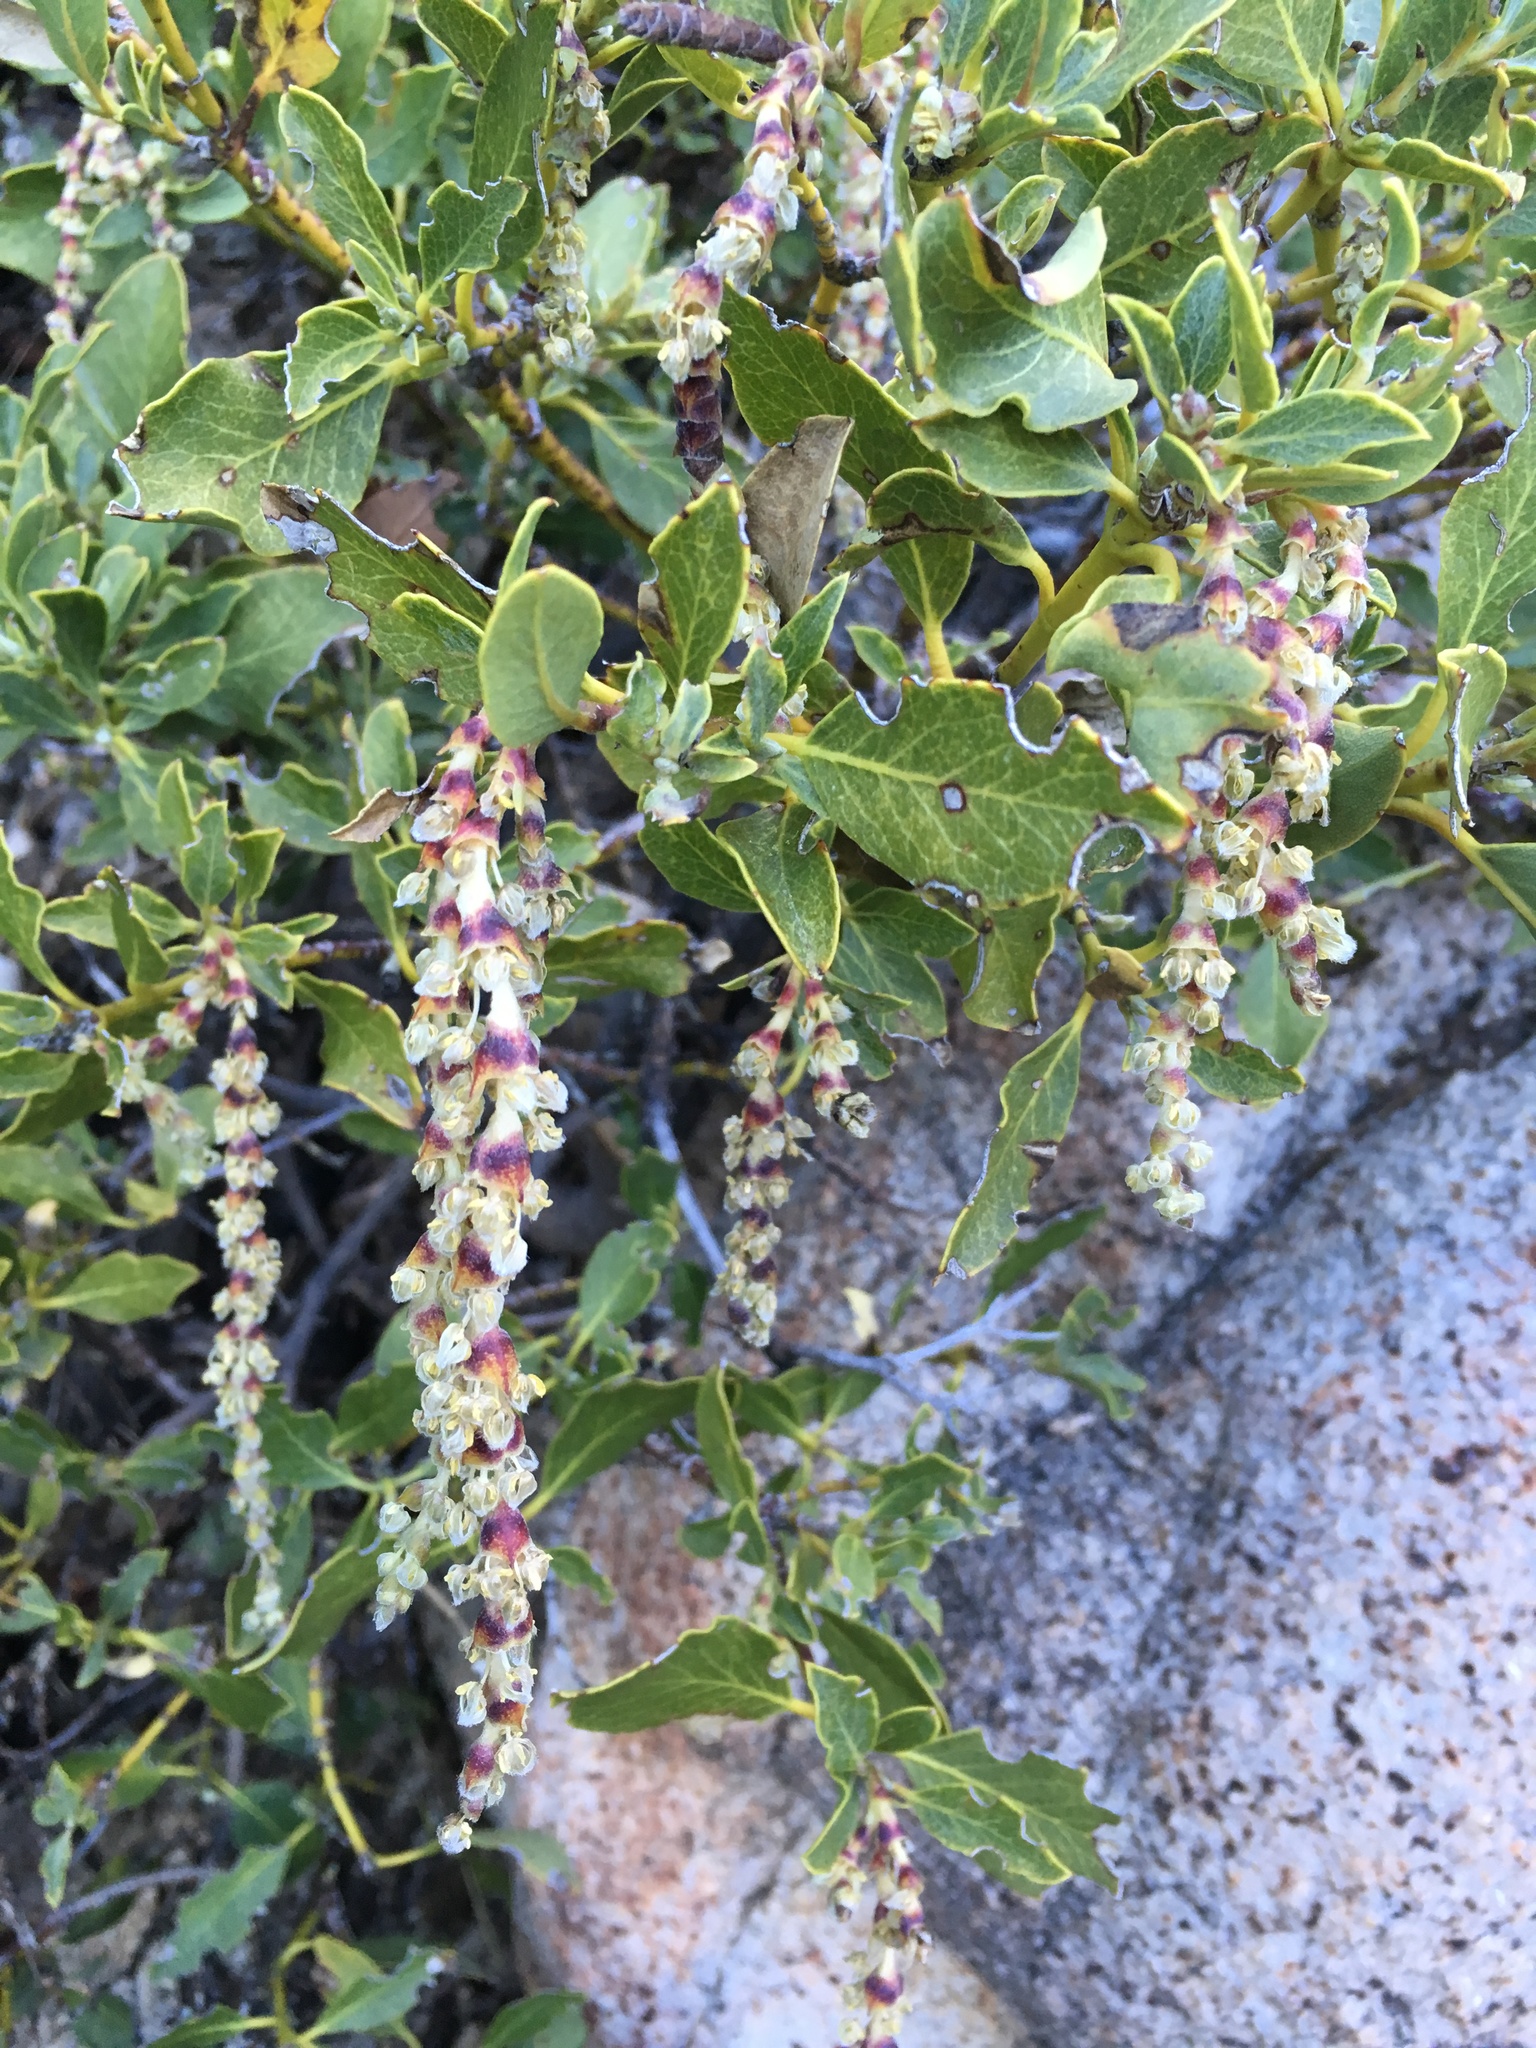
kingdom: Plantae
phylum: Tracheophyta
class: Magnoliopsida
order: Garryales
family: Garryaceae
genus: Garrya
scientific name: Garrya fremontii
